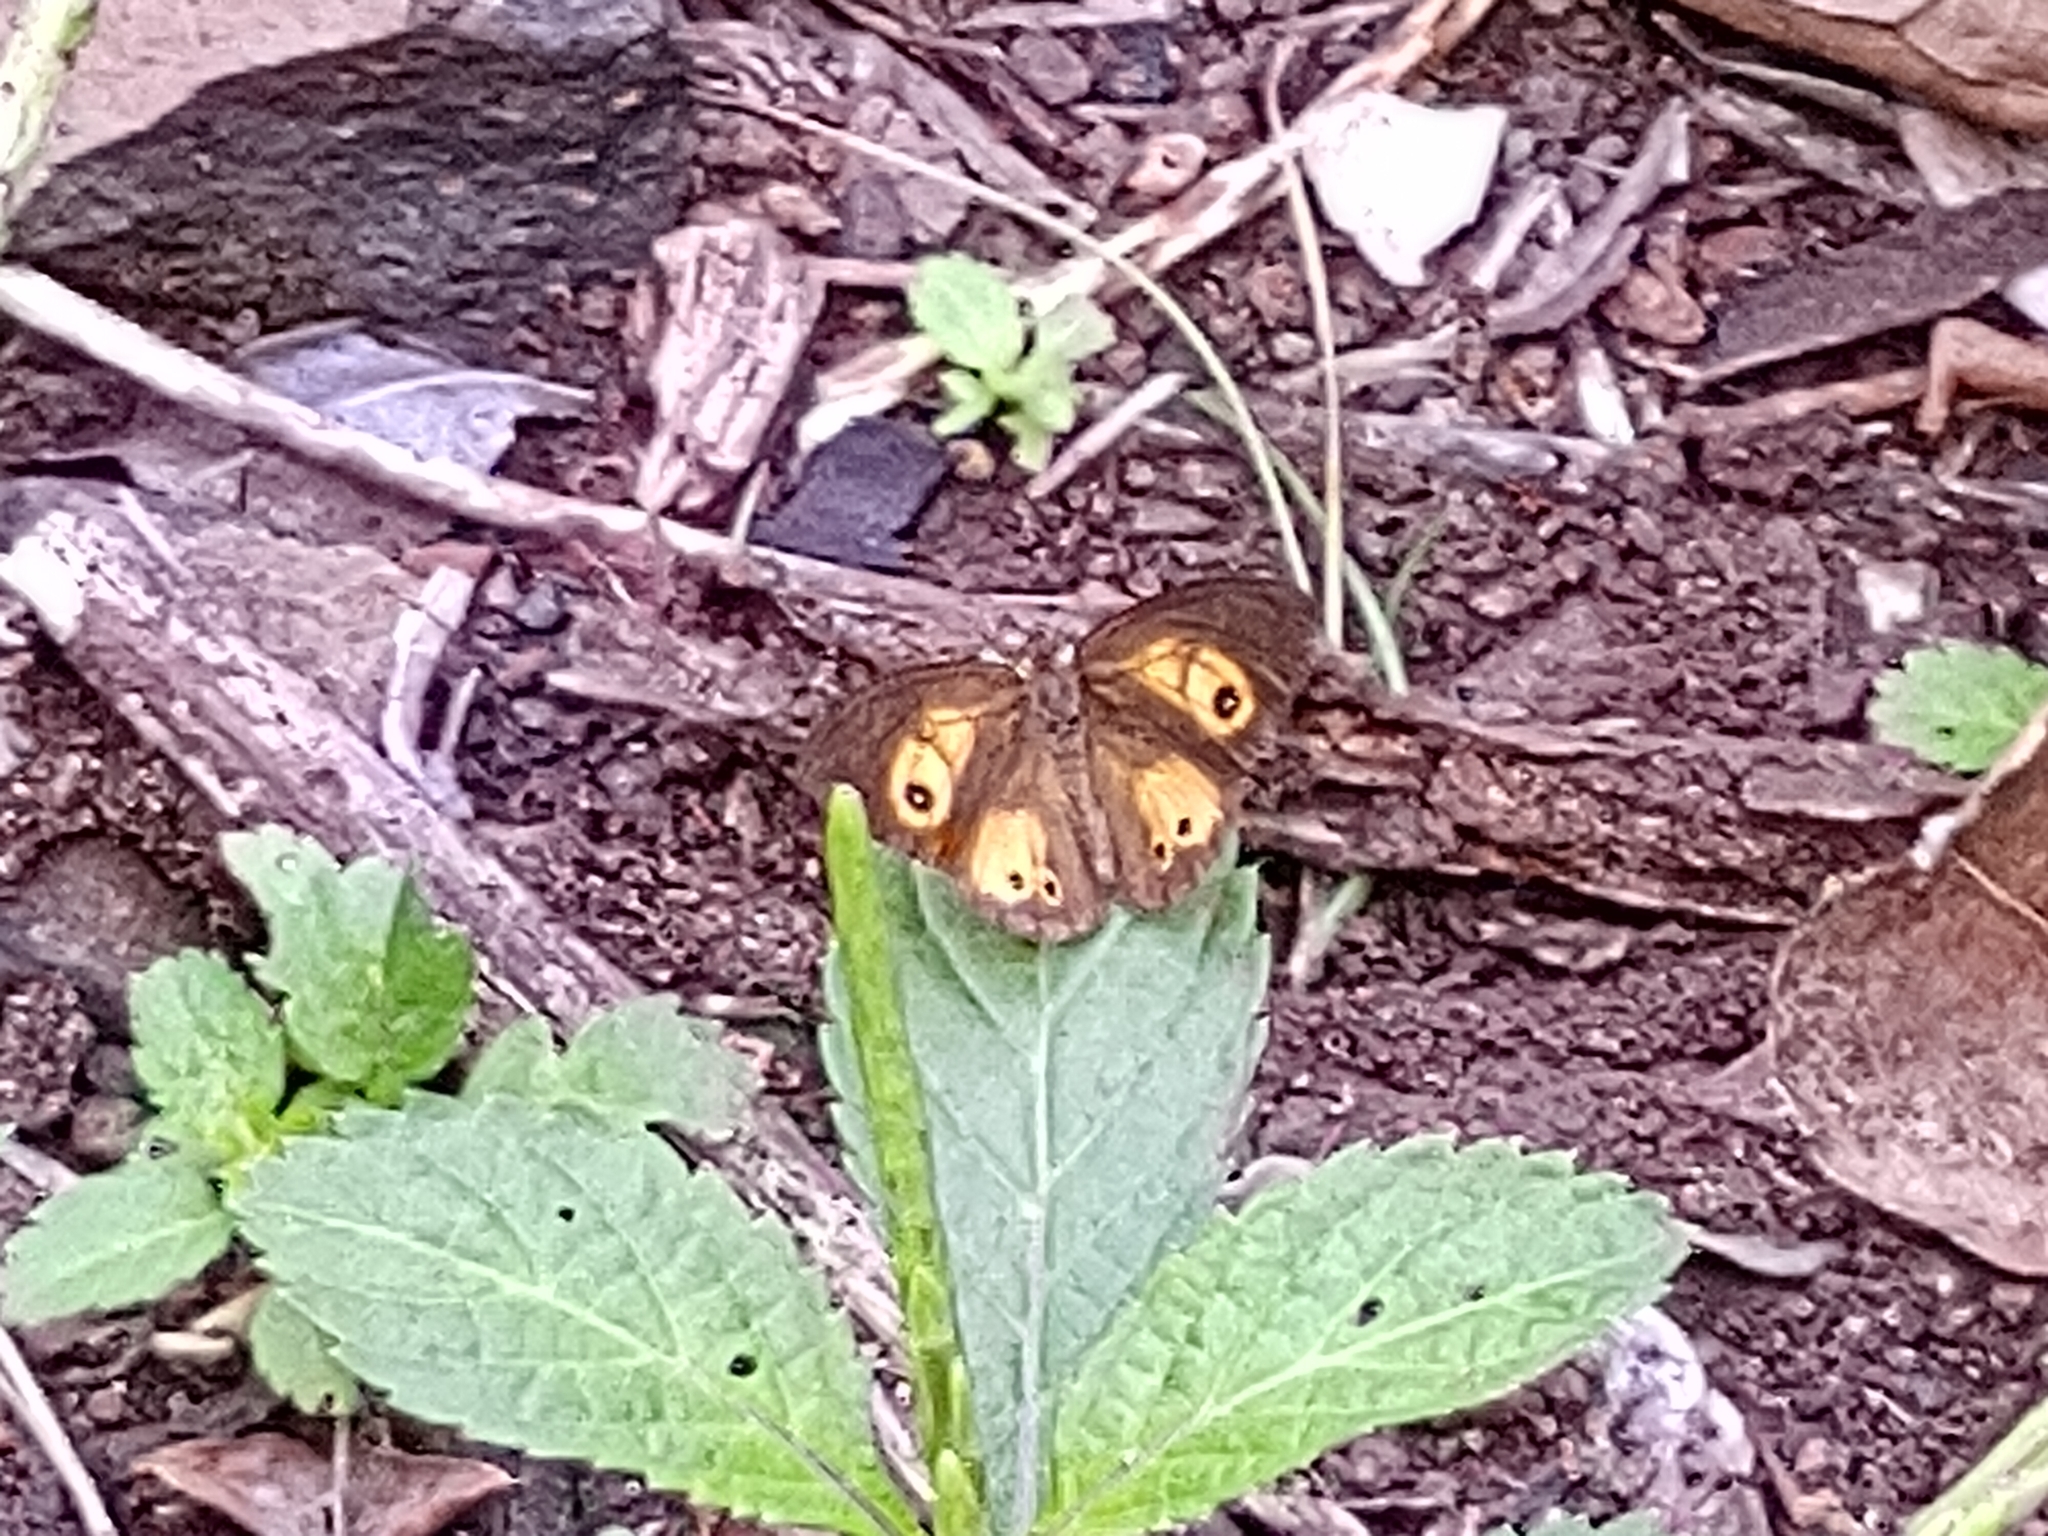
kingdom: Animalia
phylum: Arthropoda
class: Insecta
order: Lepidoptera
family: Nymphalidae
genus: Henotesia
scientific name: Henotesia narcissus
